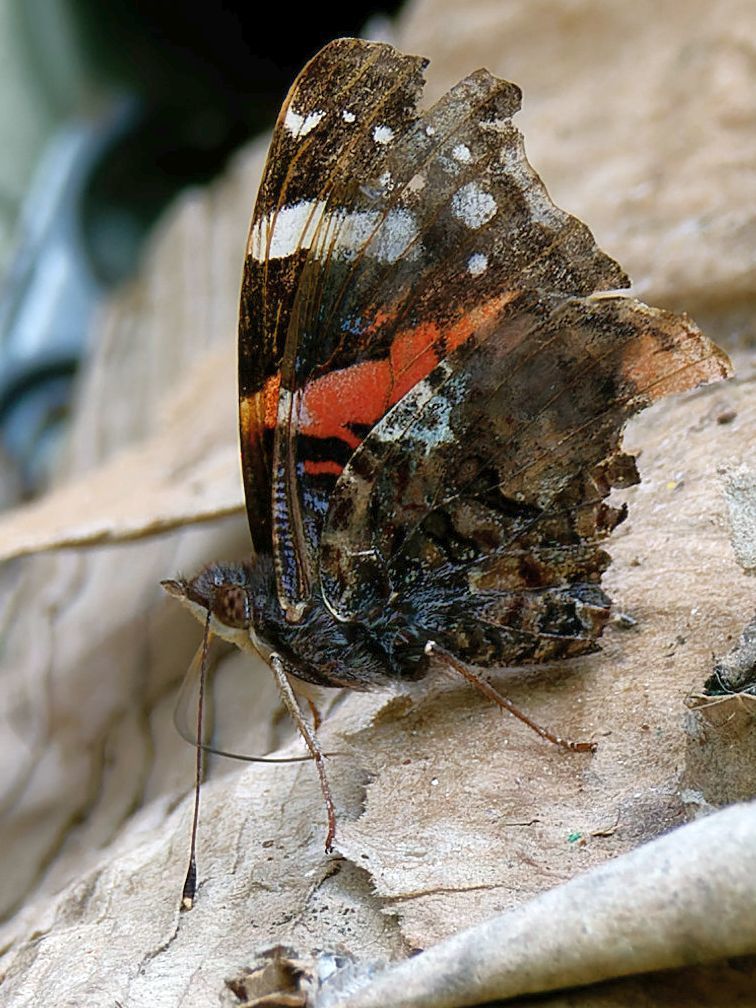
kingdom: Animalia
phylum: Arthropoda
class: Insecta
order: Lepidoptera
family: Nymphalidae
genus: Vanessa
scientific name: Vanessa atalanta
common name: Red admiral
